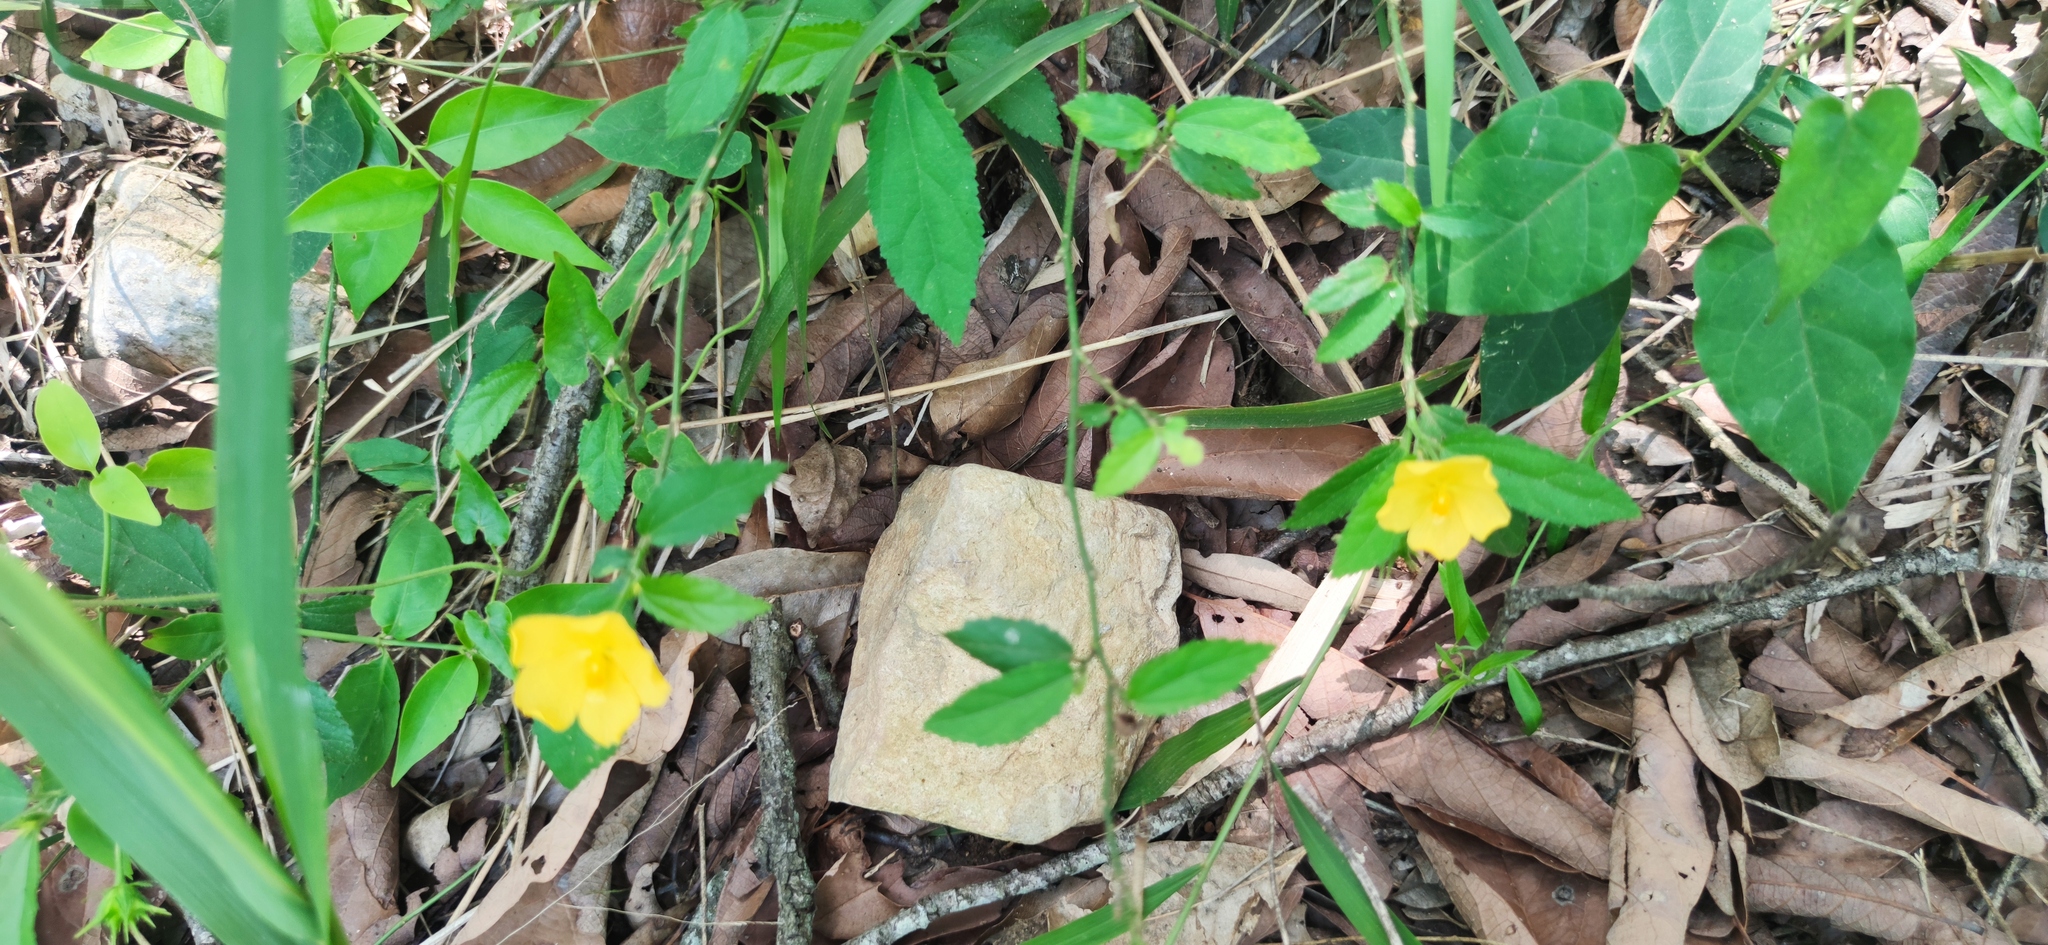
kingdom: Plantae
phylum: Tracheophyta
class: Magnoliopsida
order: Malvales
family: Malvaceae
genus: Pavonia
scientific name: Pavonia uniflora
